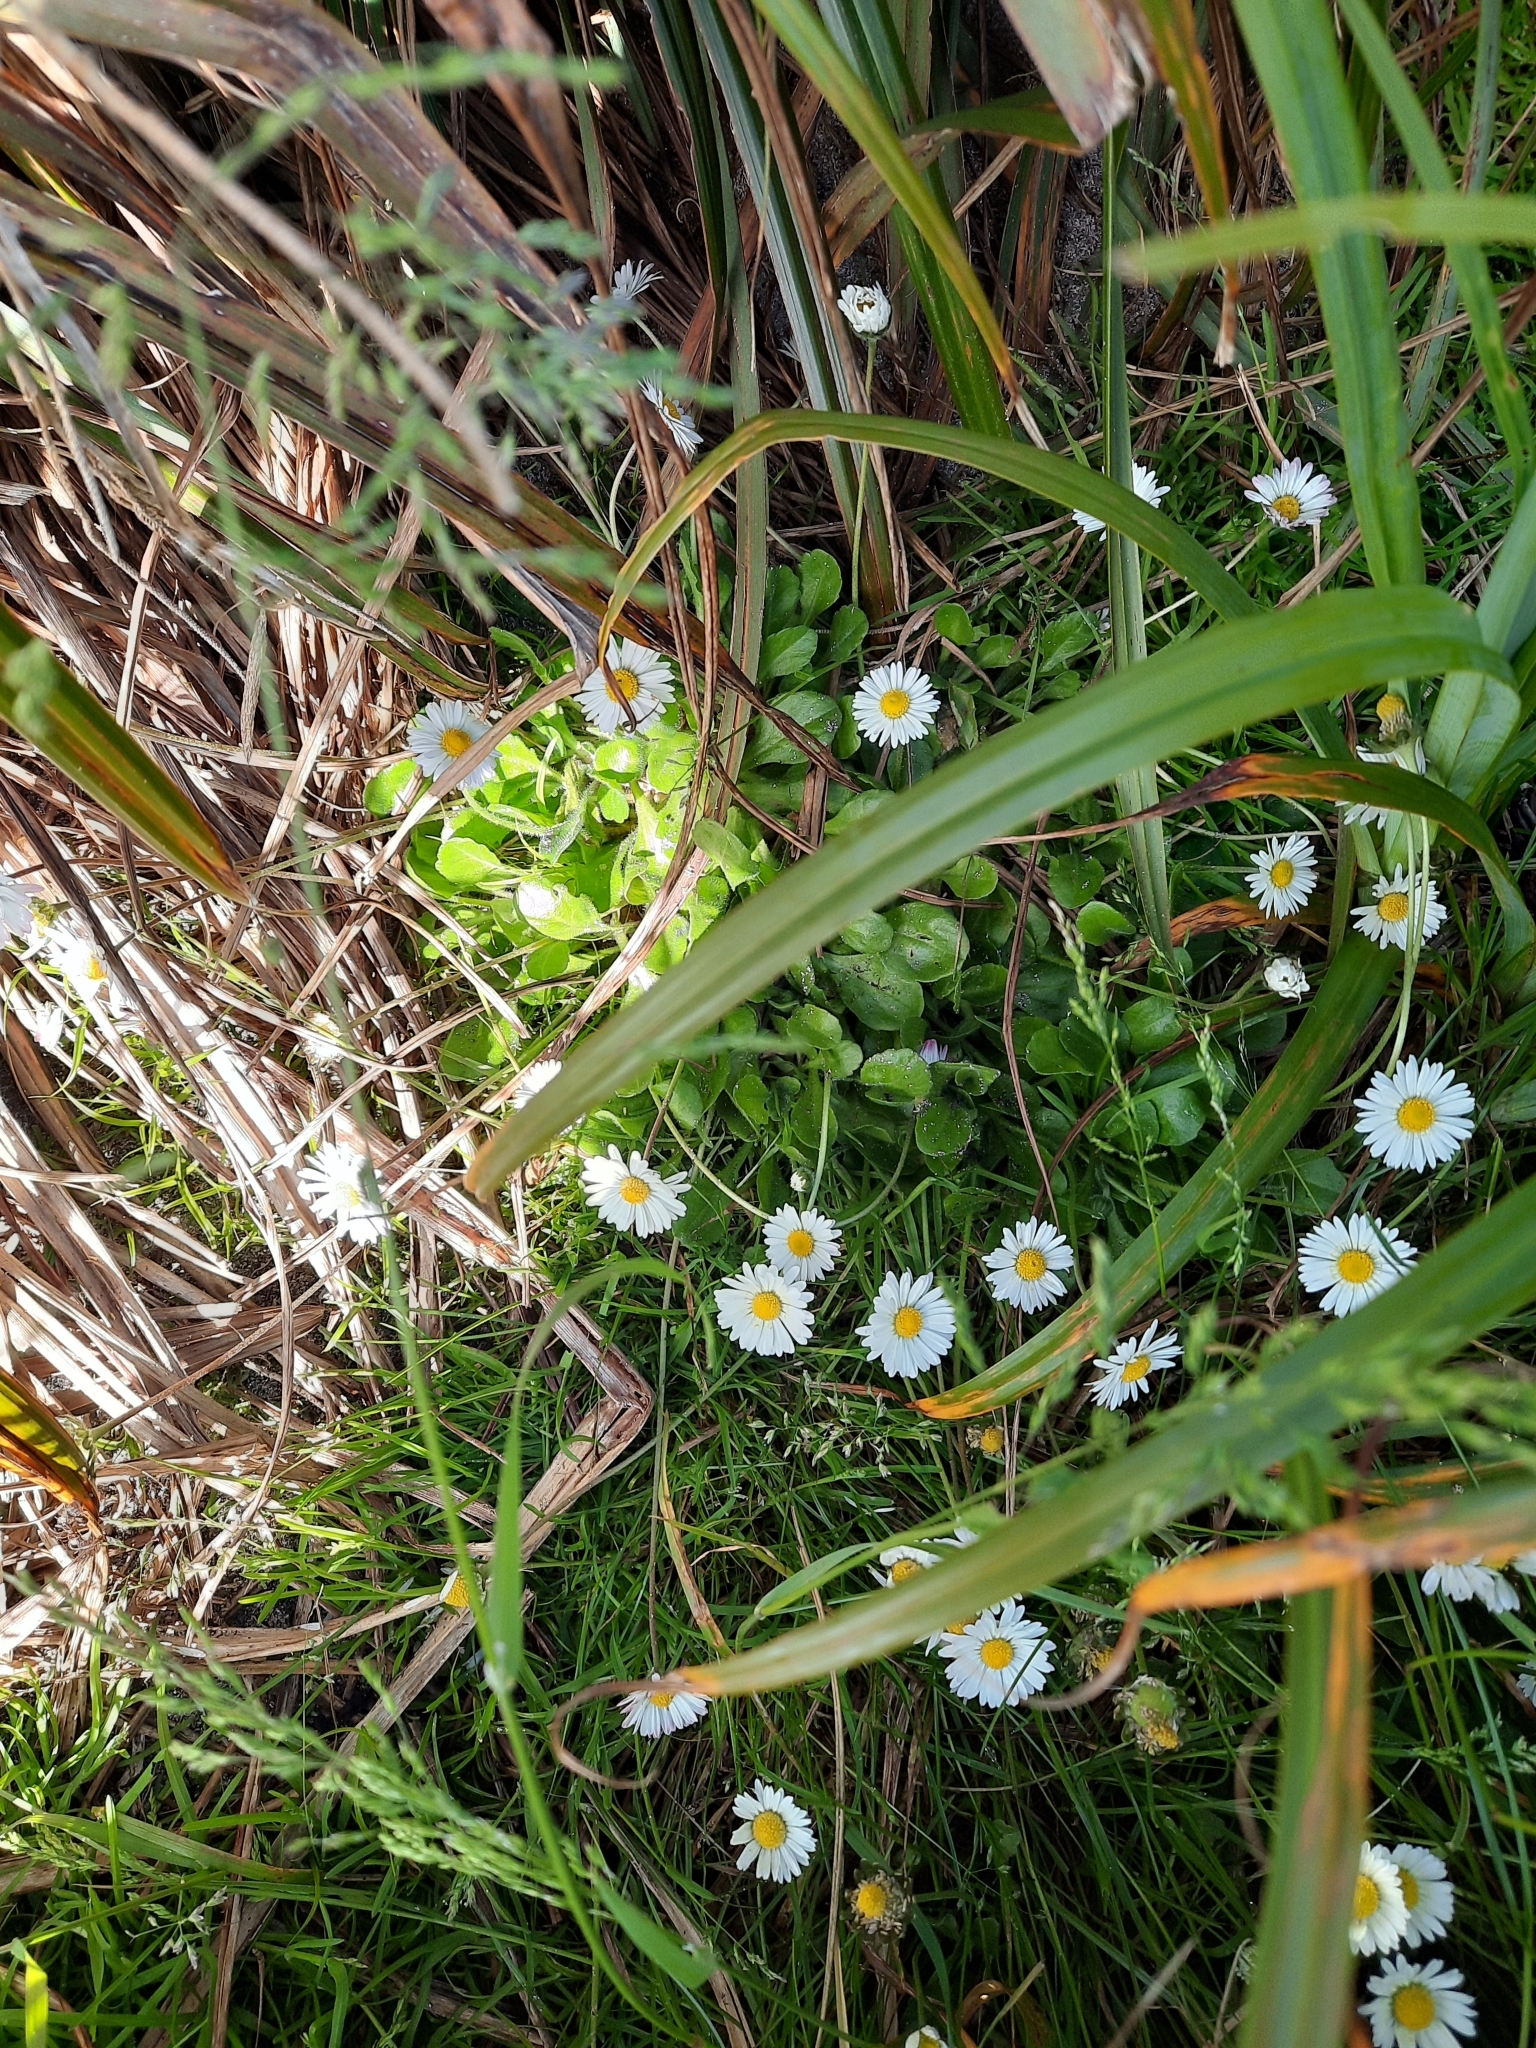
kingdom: Plantae
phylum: Tracheophyta
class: Magnoliopsida
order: Asterales
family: Asteraceae
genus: Bellis
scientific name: Bellis perennis
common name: Lawndaisy
